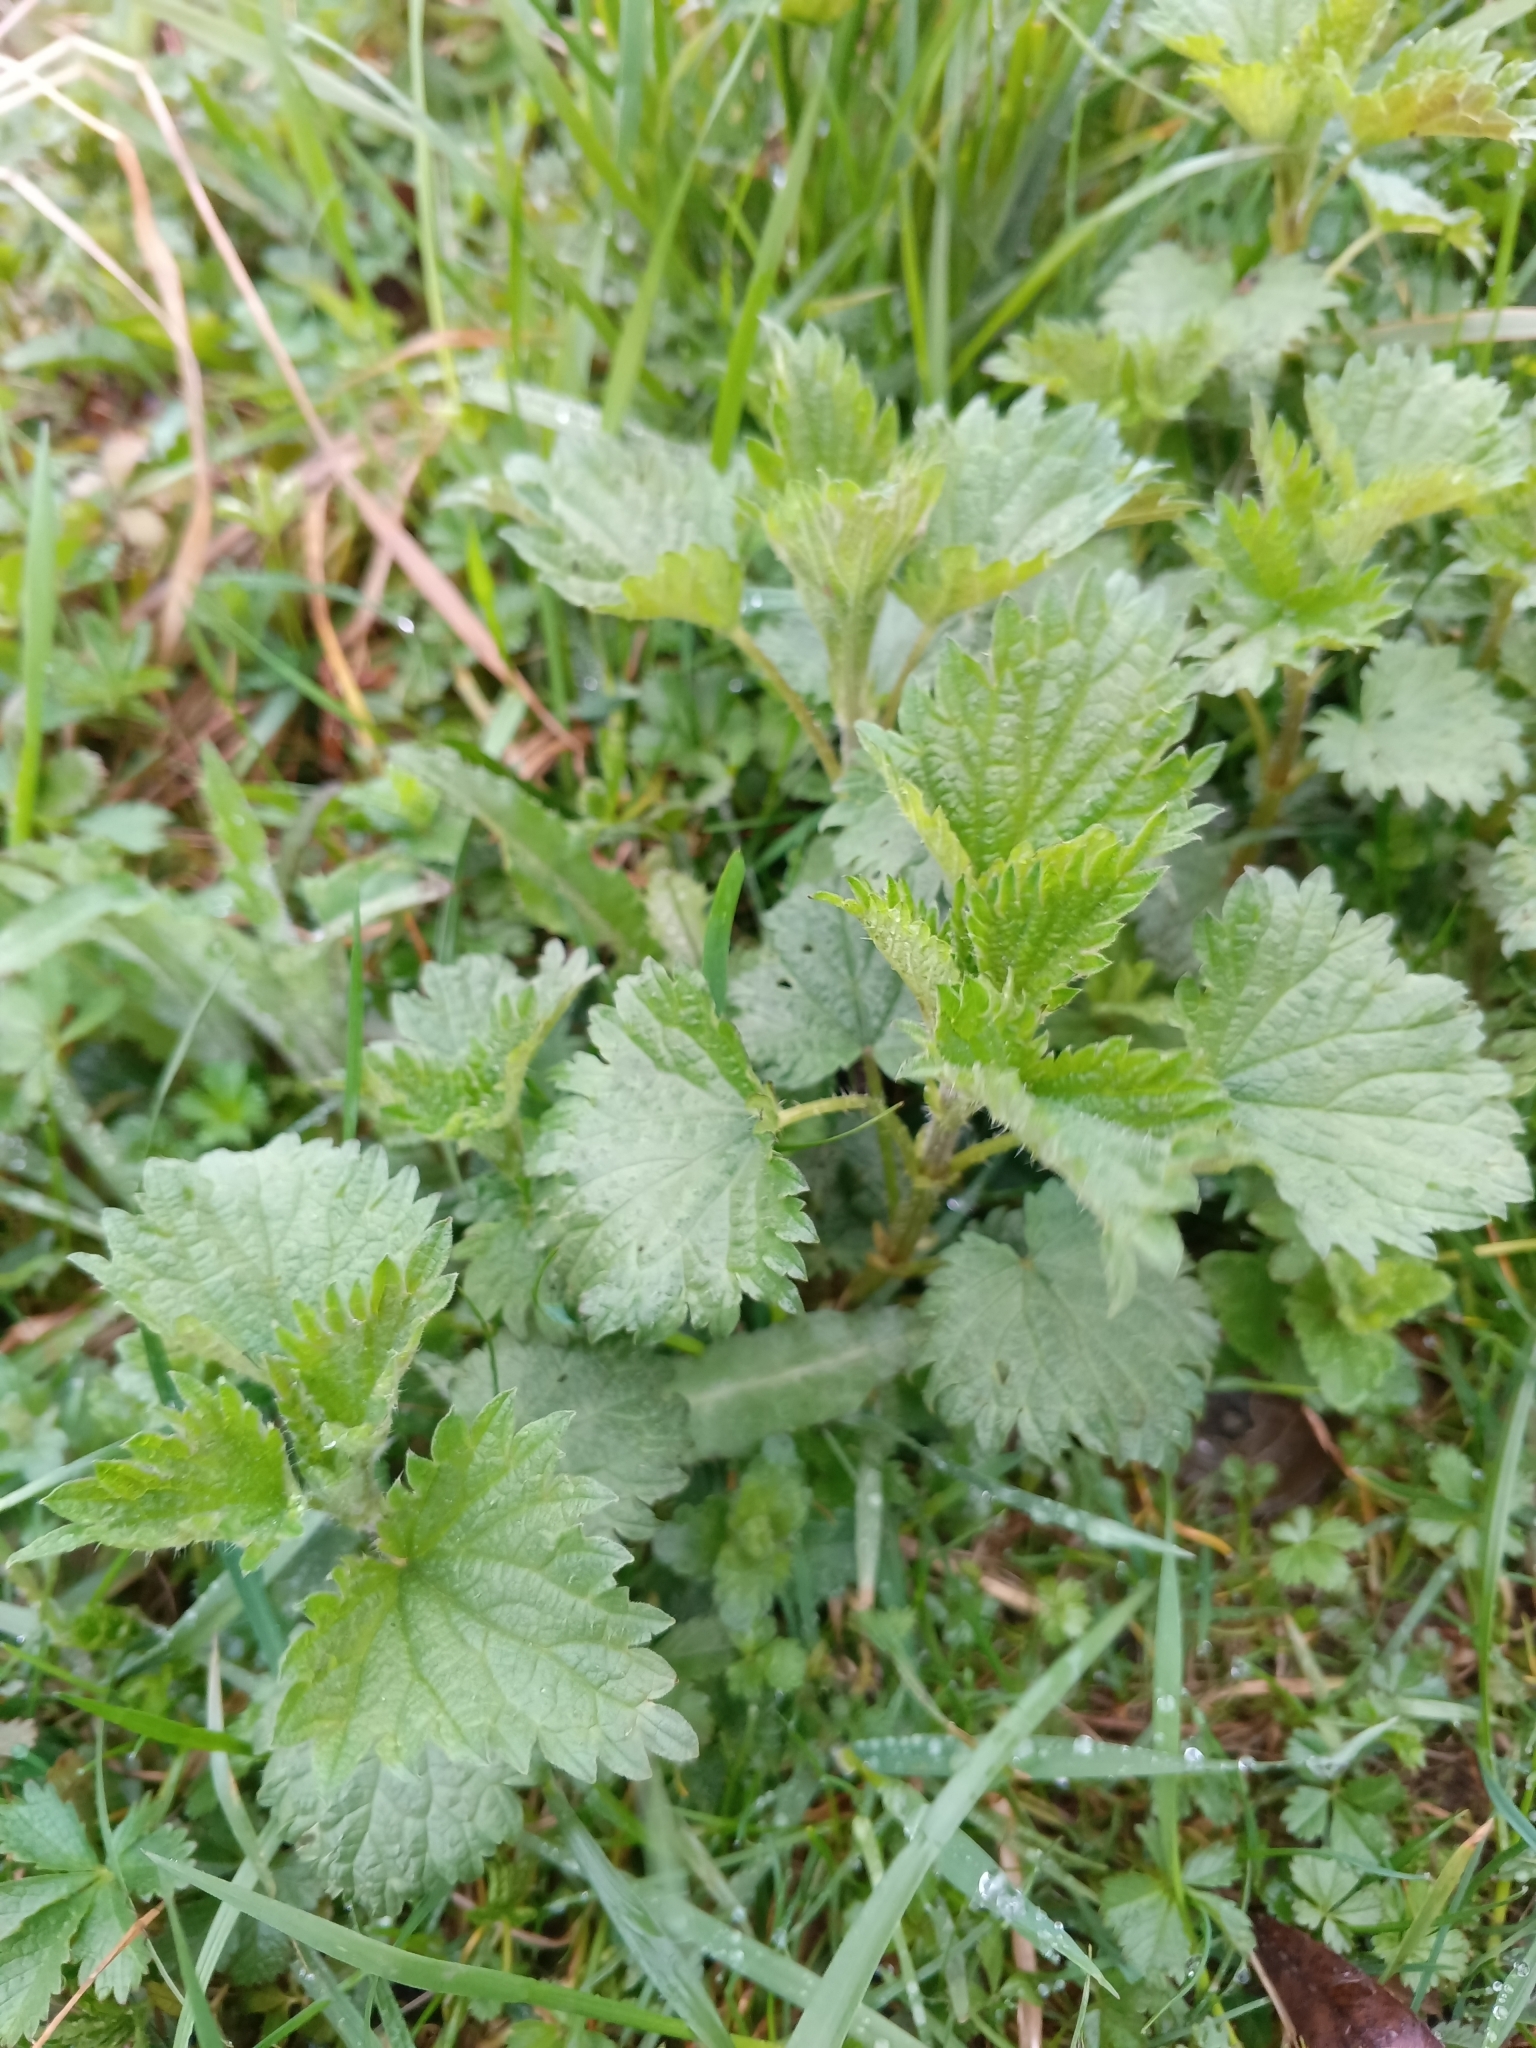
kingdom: Plantae
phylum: Tracheophyta
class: Magnoliopsida
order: Rosales
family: Urticaceae
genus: Urtica
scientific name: Urtica dioica
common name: Common nettle
